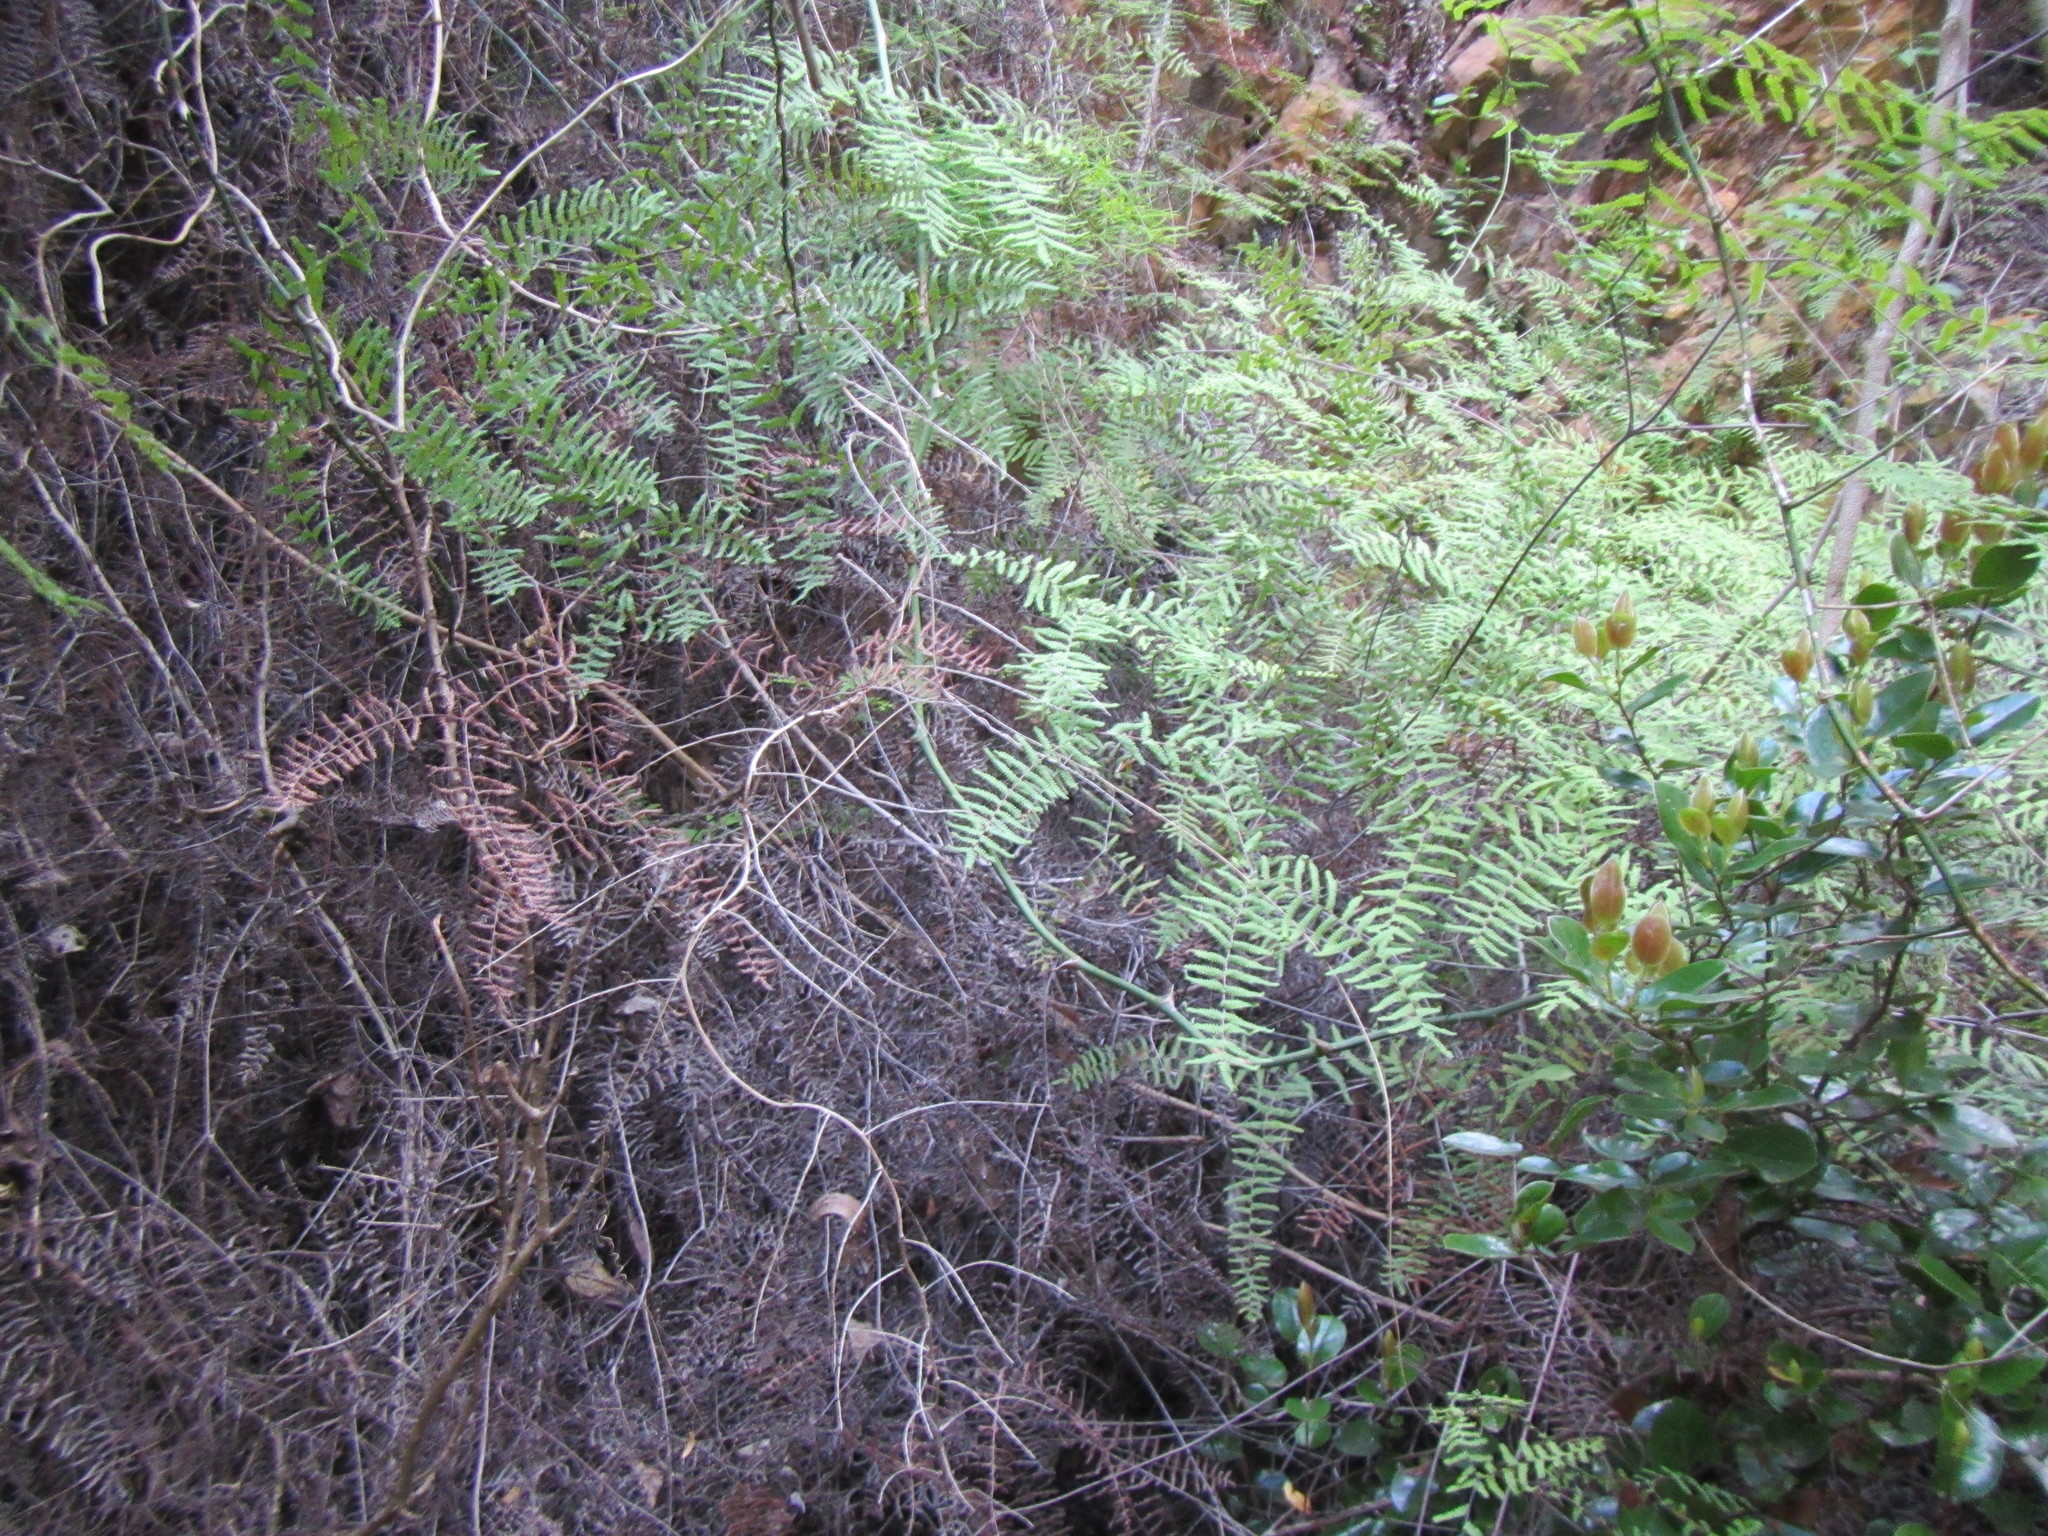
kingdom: Plantae
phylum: Tracheophyta
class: Polypodiopsida
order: Gleicheniales
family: Gleicheniaceae
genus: Gleichenia
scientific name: Gleichenia polypodioides
